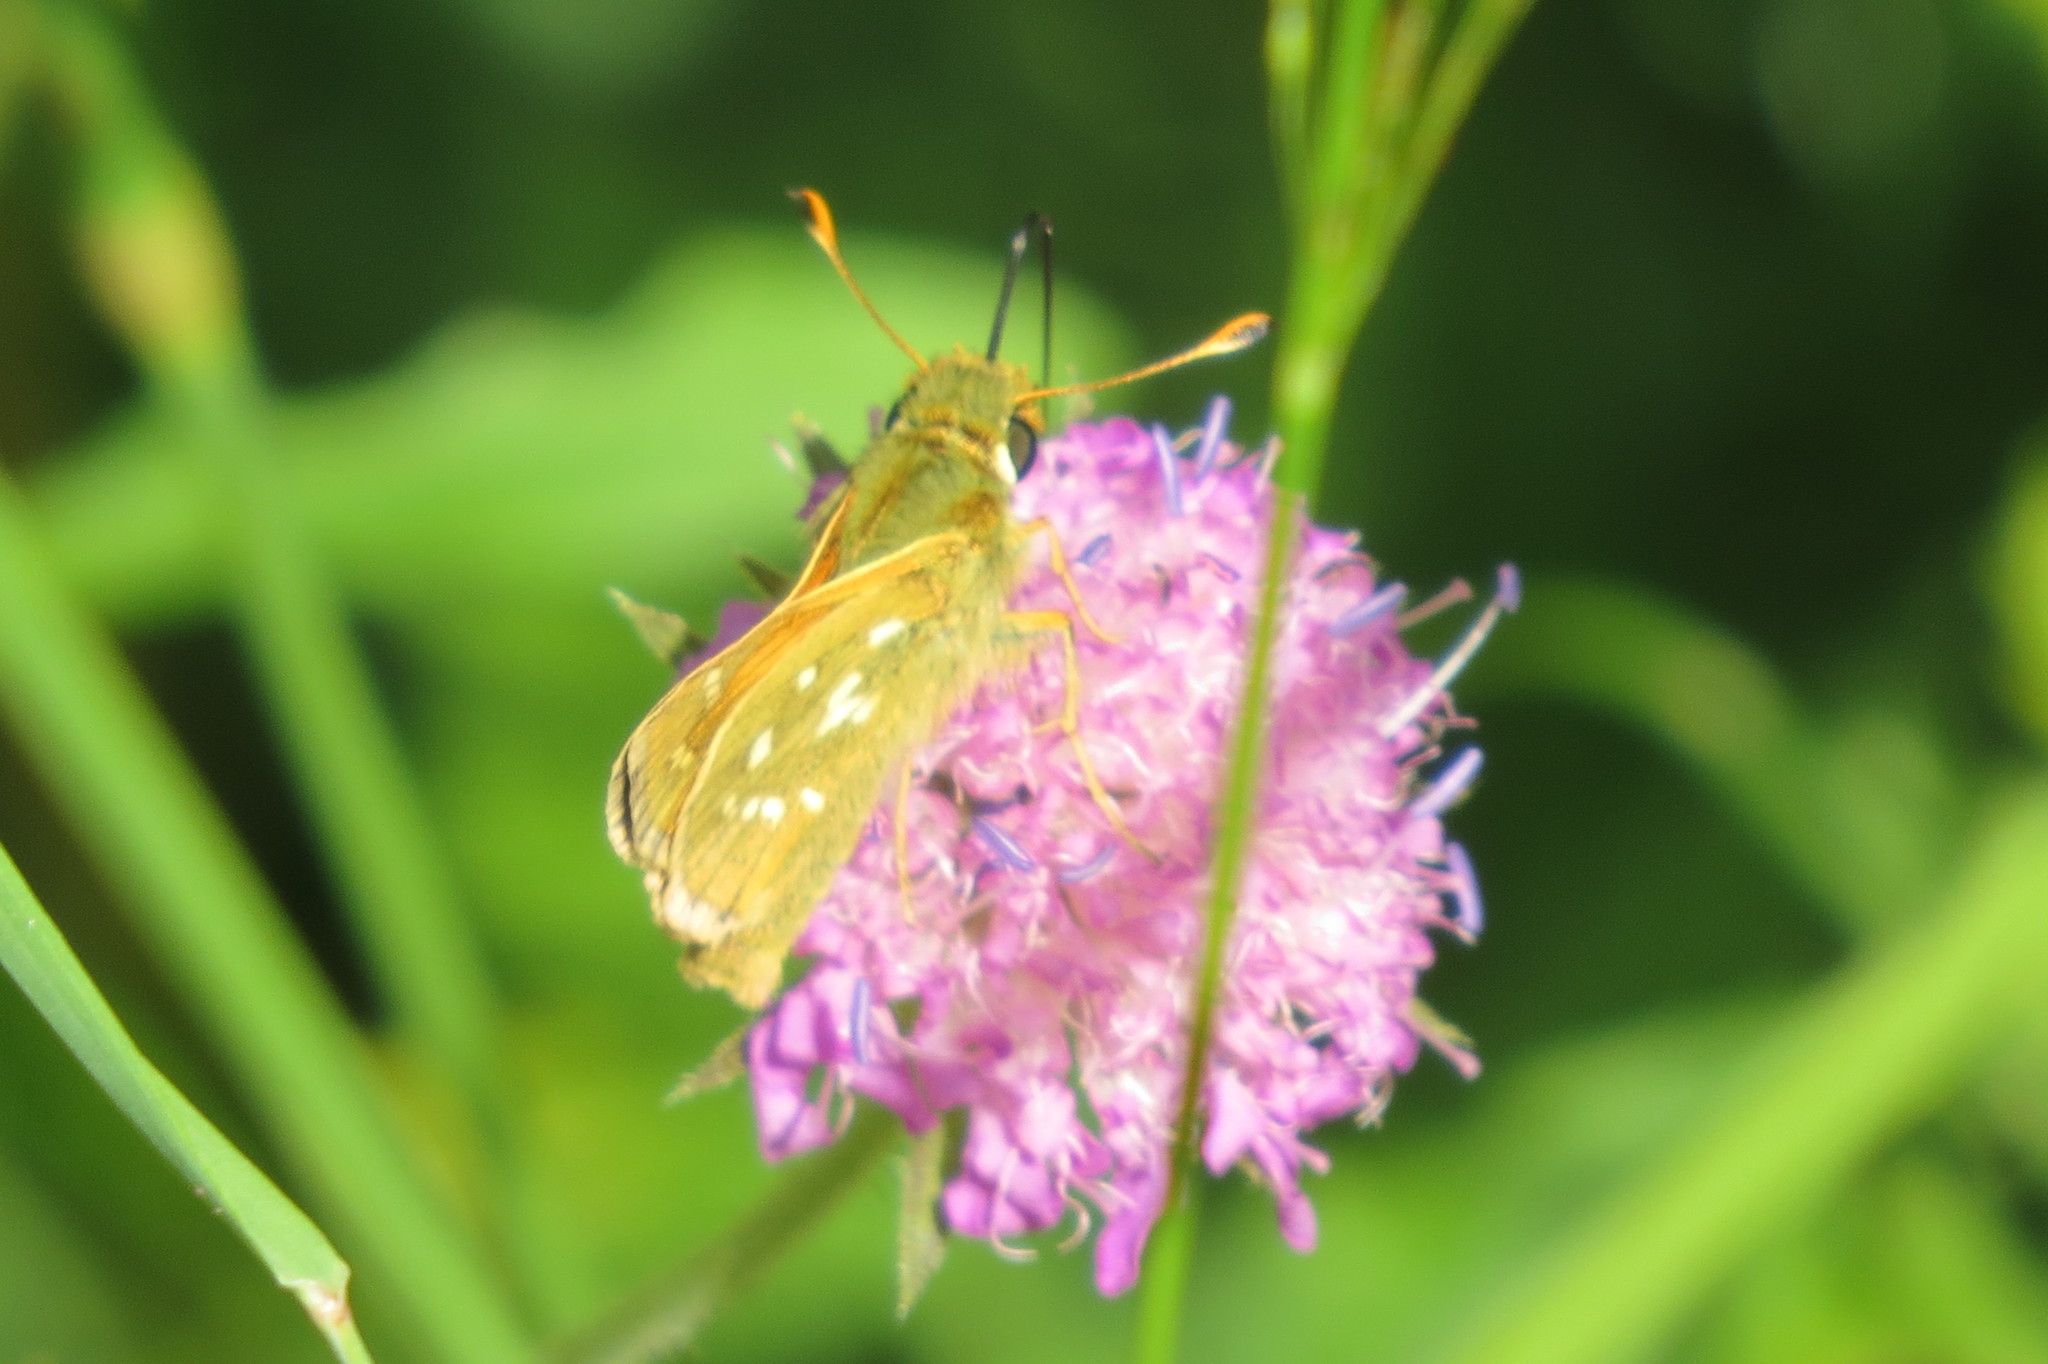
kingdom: Animalia
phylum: Arthropoda
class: Insecta
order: Lepidoptera
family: Hesperiidae
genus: Hesperia
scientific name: Hesperia comma
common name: Common branded skipper
